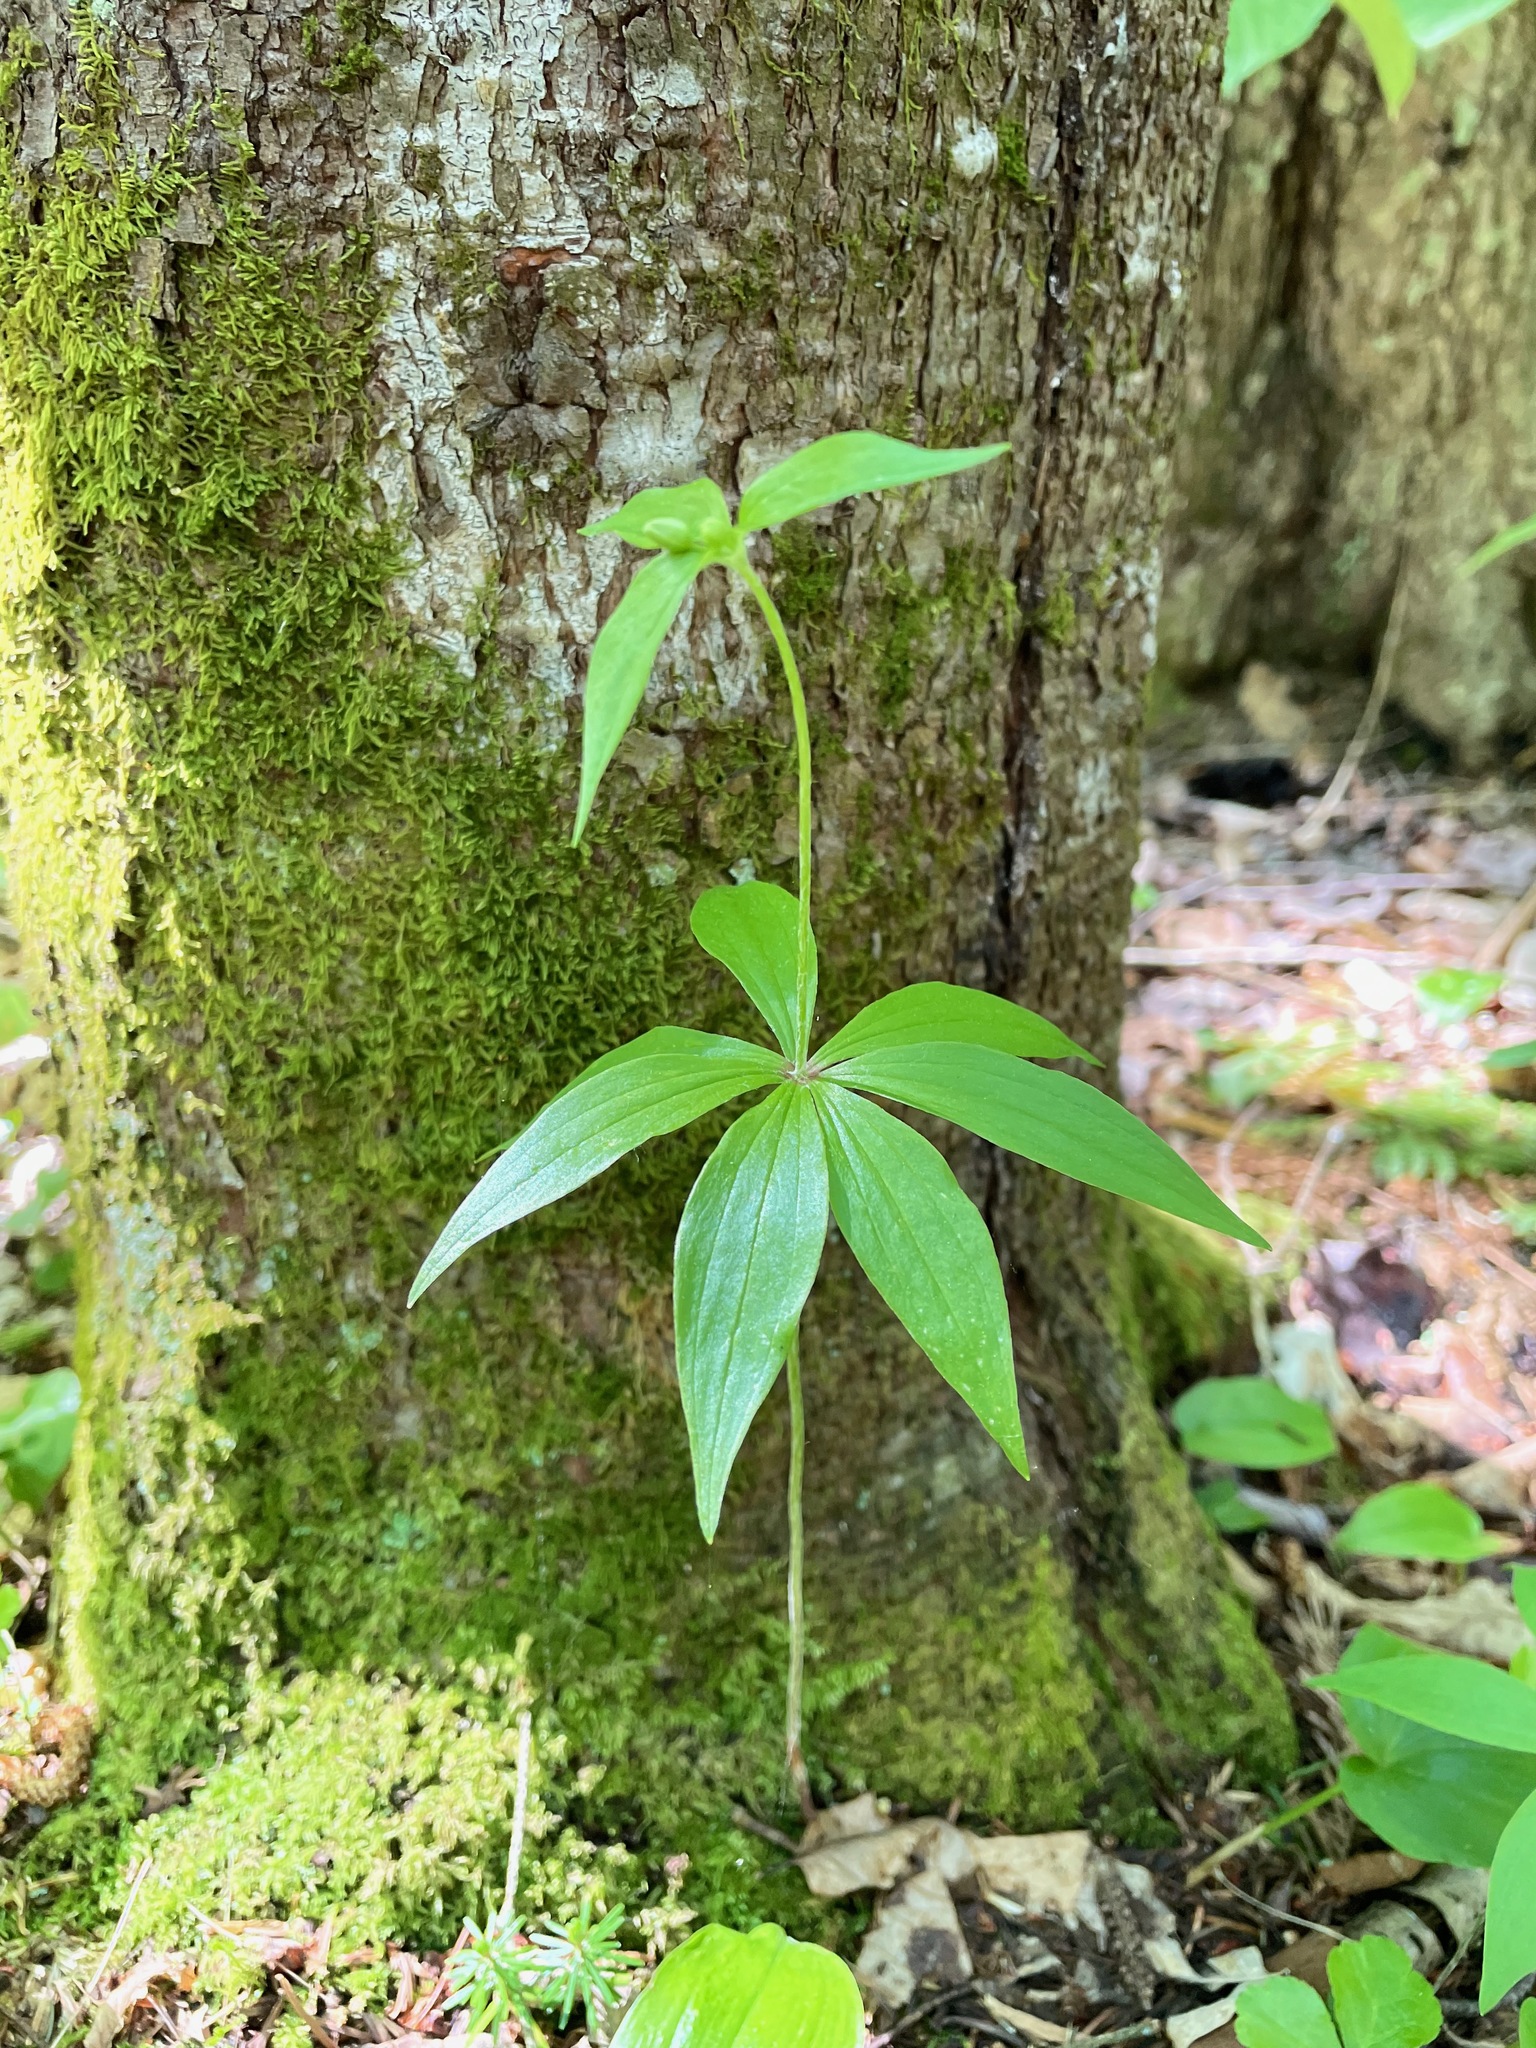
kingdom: Plantae
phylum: Tracheophyta
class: Liliopsida
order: Liliales
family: Liliaceae
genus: Medeola
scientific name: Medeola virginiana
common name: Indian cucumber-root
